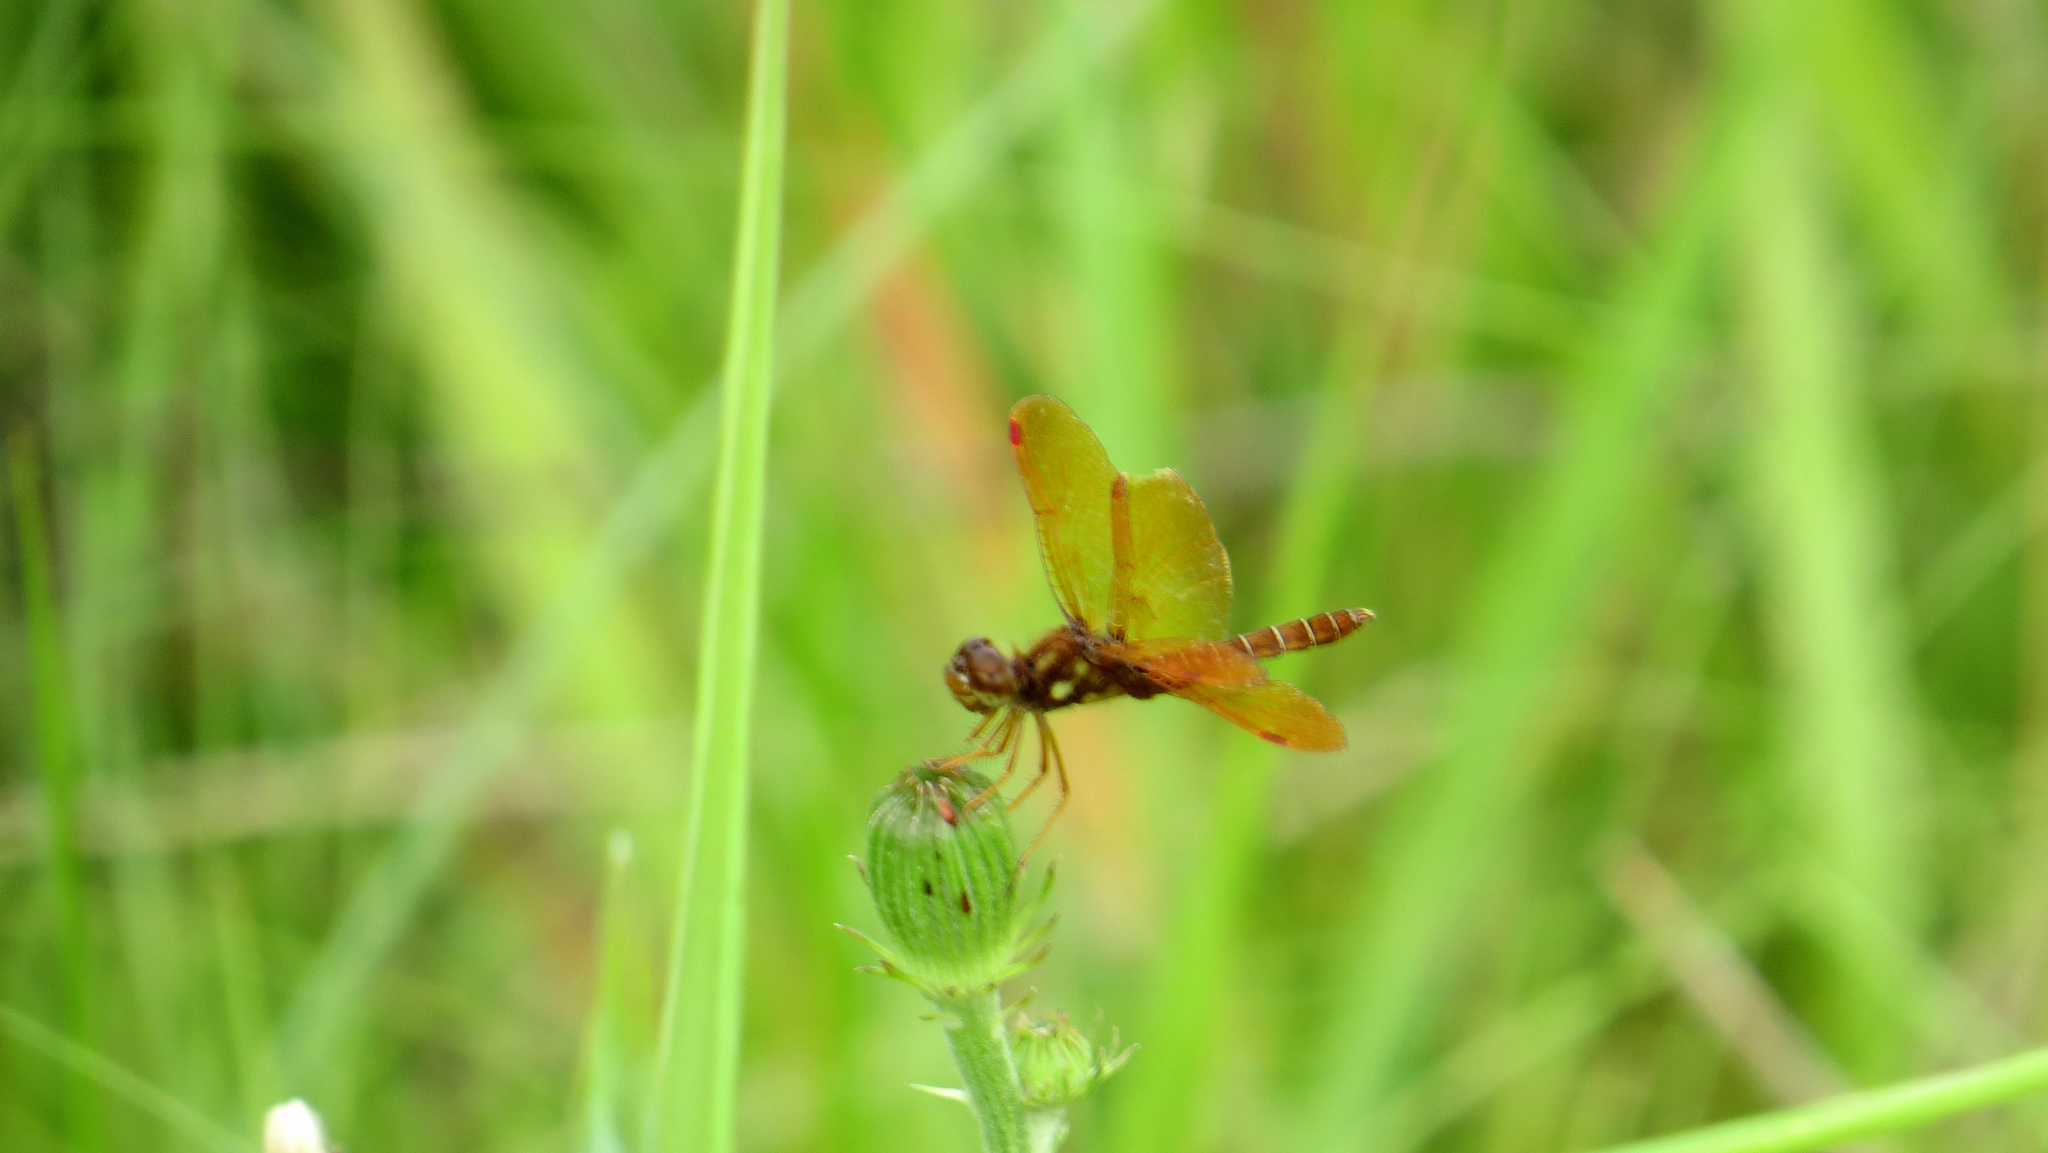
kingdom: Animalia
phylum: Arthropoda
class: Insecta
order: Odonata
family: Libellulidae
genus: Perithemis
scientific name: Perithemis tenera
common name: Eastern amberwing
